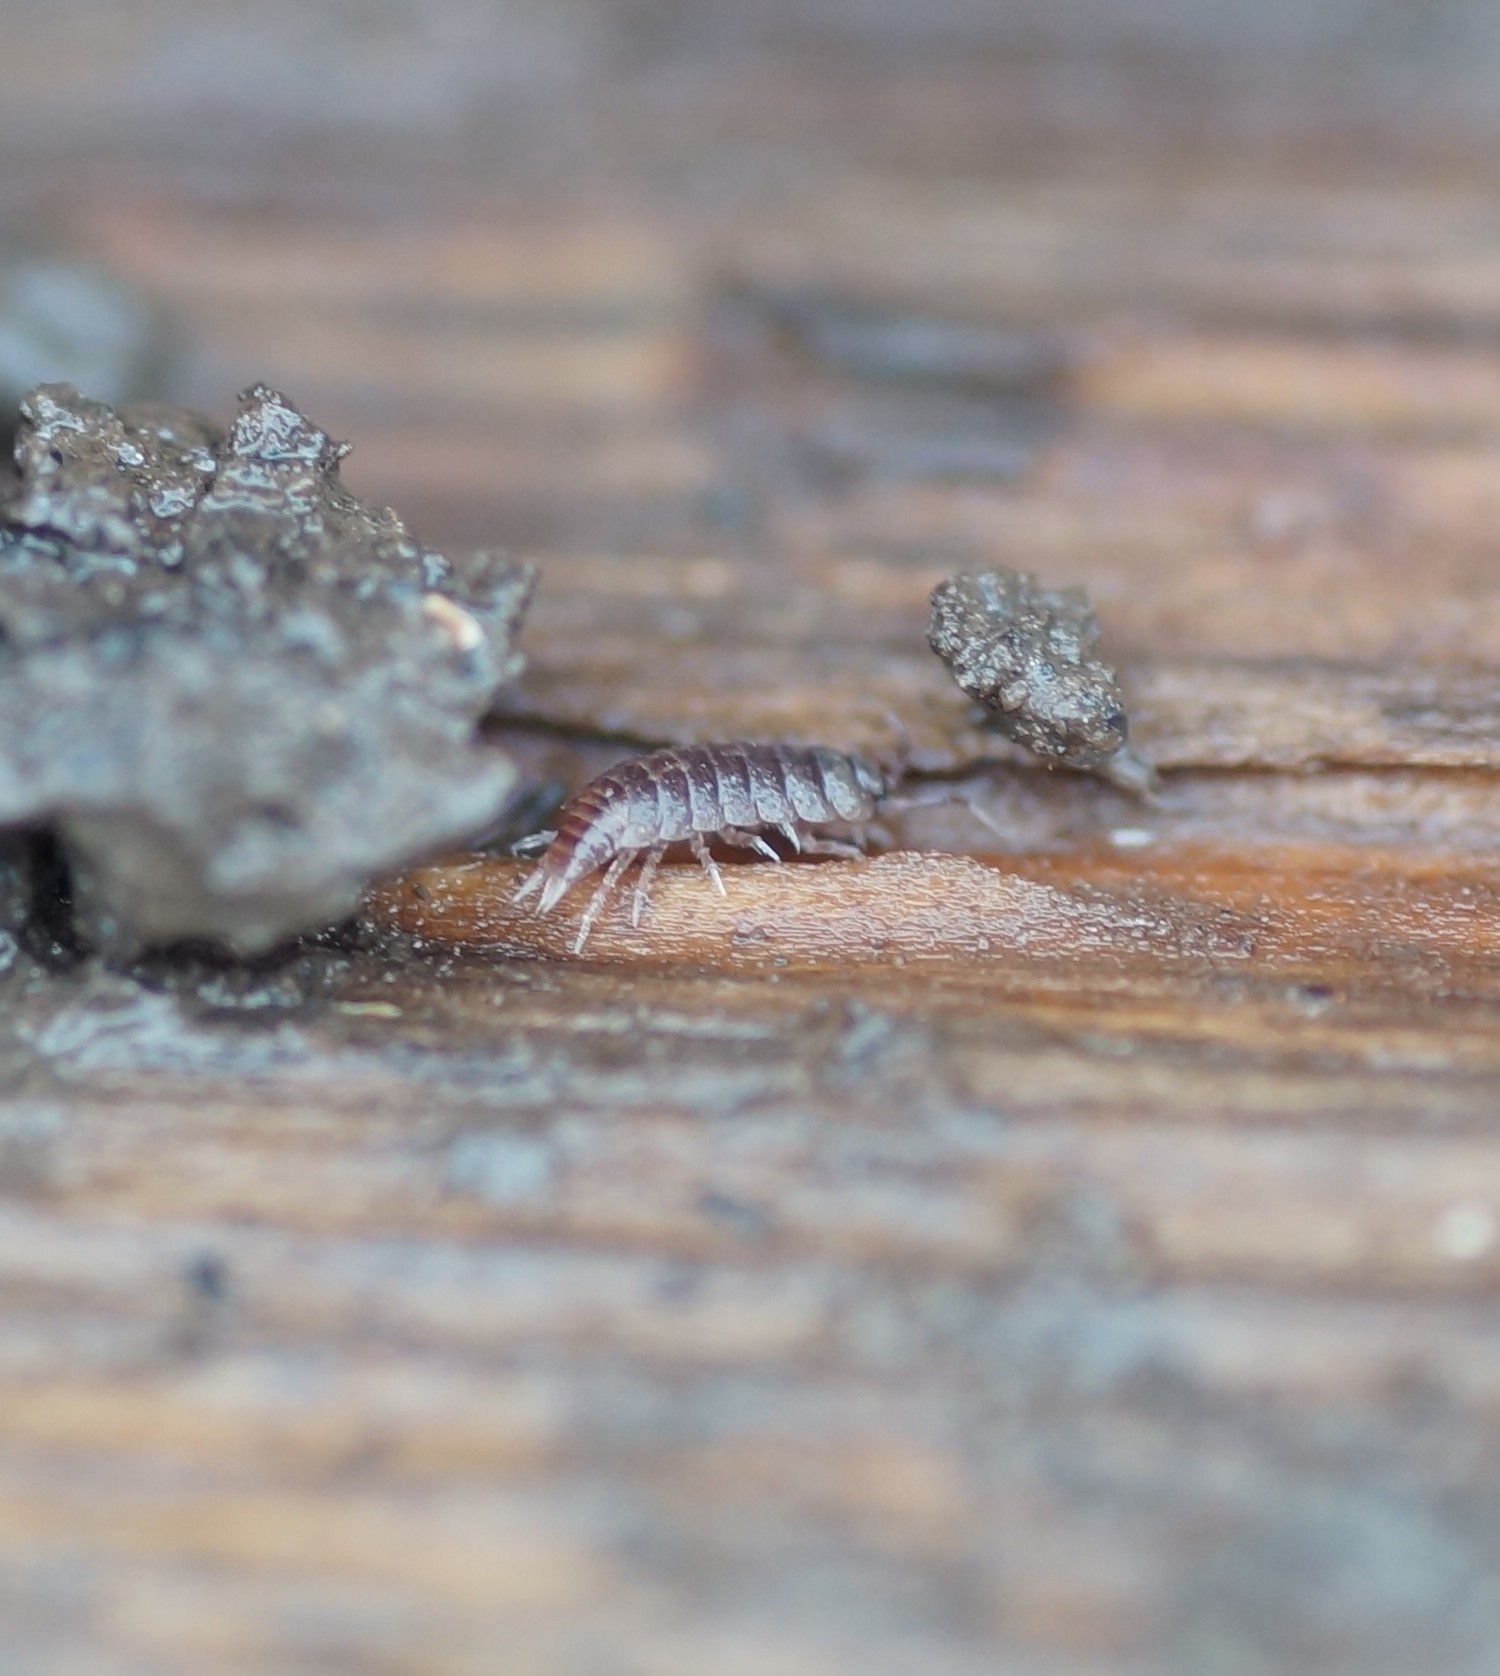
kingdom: Animalia
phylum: Arthropoda
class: Malacostraca
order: Isopoda
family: Trichoniscidae
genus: Hyloniscus
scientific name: Hyloniscus riparius
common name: Isopod
